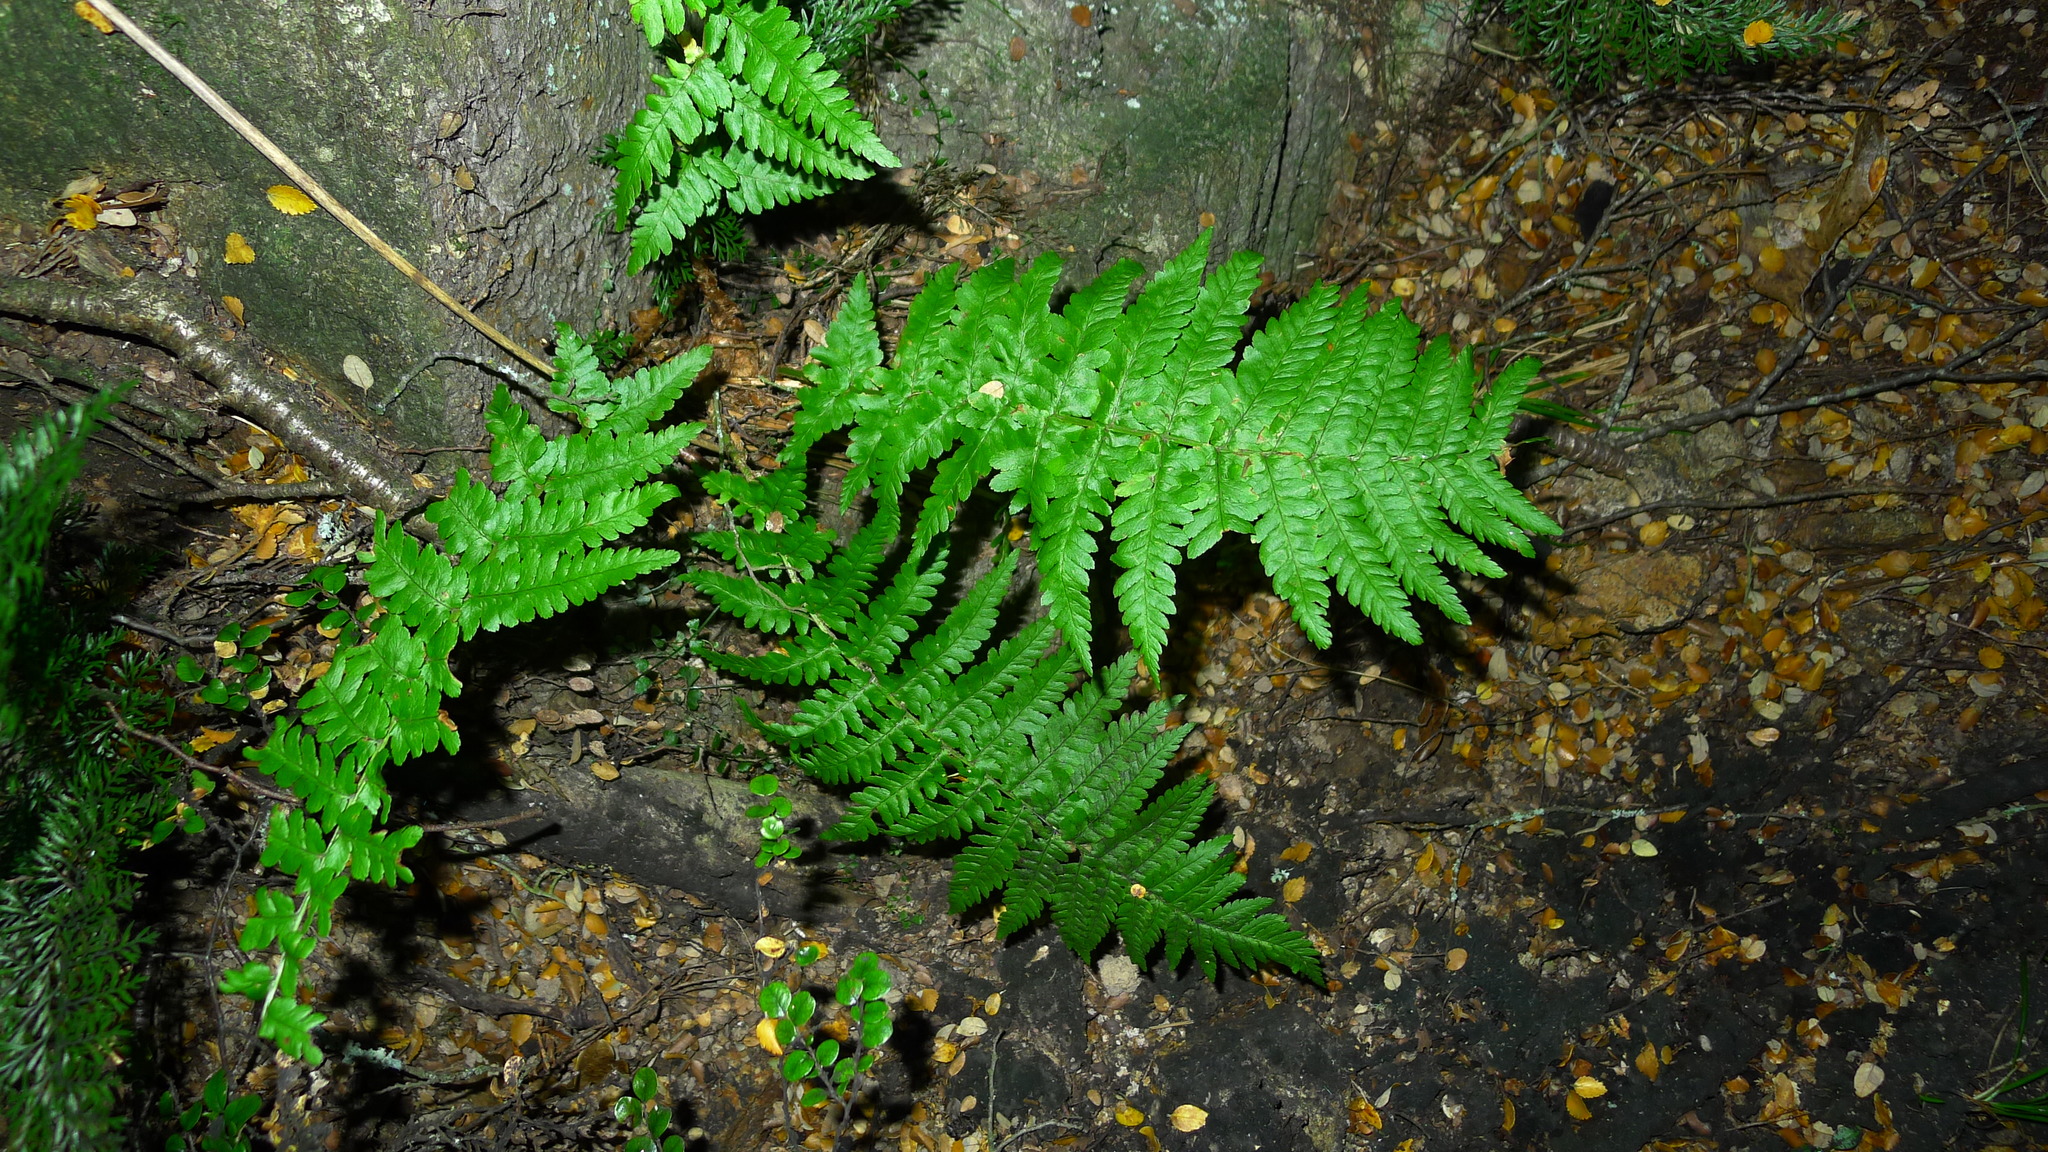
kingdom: Plantae
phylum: Tracheophyta
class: Polypodiopsida
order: Polypodiales
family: Dryopteridaceae
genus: Dryopteris
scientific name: Dryopteris filix-mas
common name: Male fern
